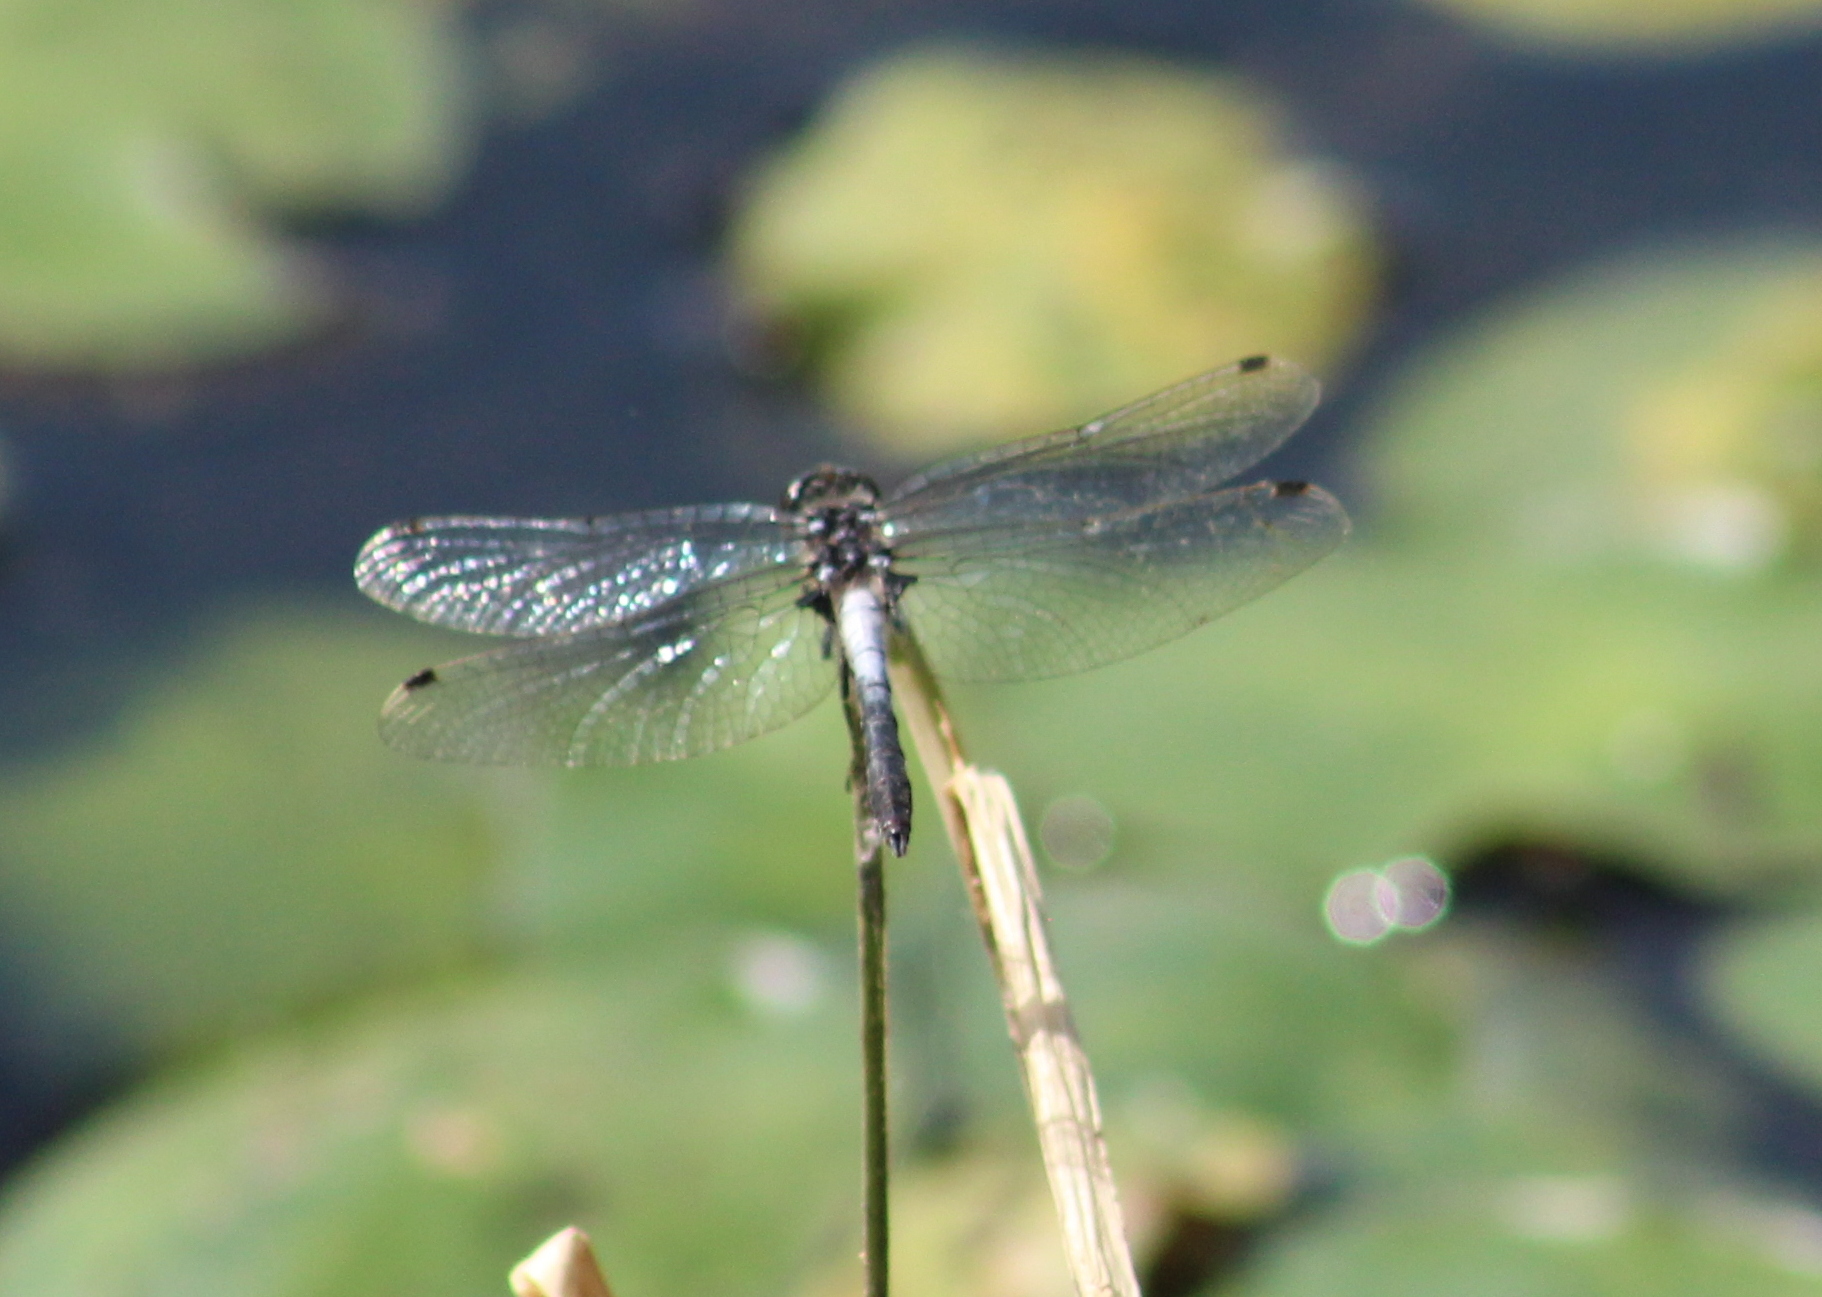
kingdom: Animalia
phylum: Arthropoda
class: Insecta
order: Odonata
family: Libellulidae
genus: Leucorrhinia
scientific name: Leucorrhinia frigida
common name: Frosted whiteface
